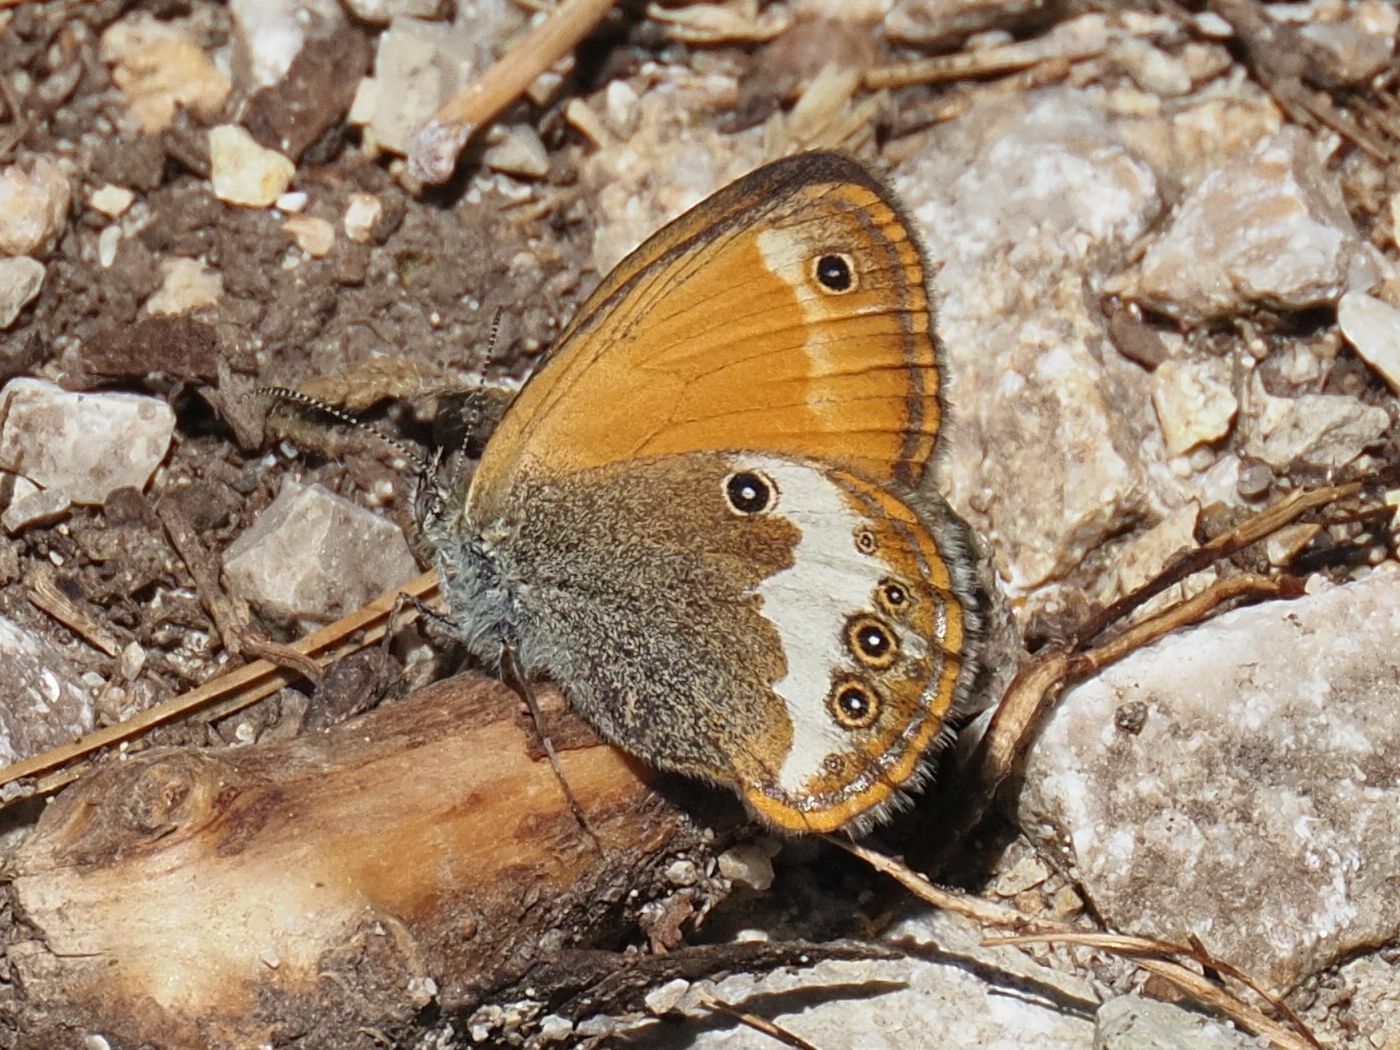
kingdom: Animalia
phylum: Arthropoda
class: Insecta
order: Lepidoptera
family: Nymphalidae
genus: Coenonympha
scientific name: Coenonympha arcania
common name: Pearly heath
